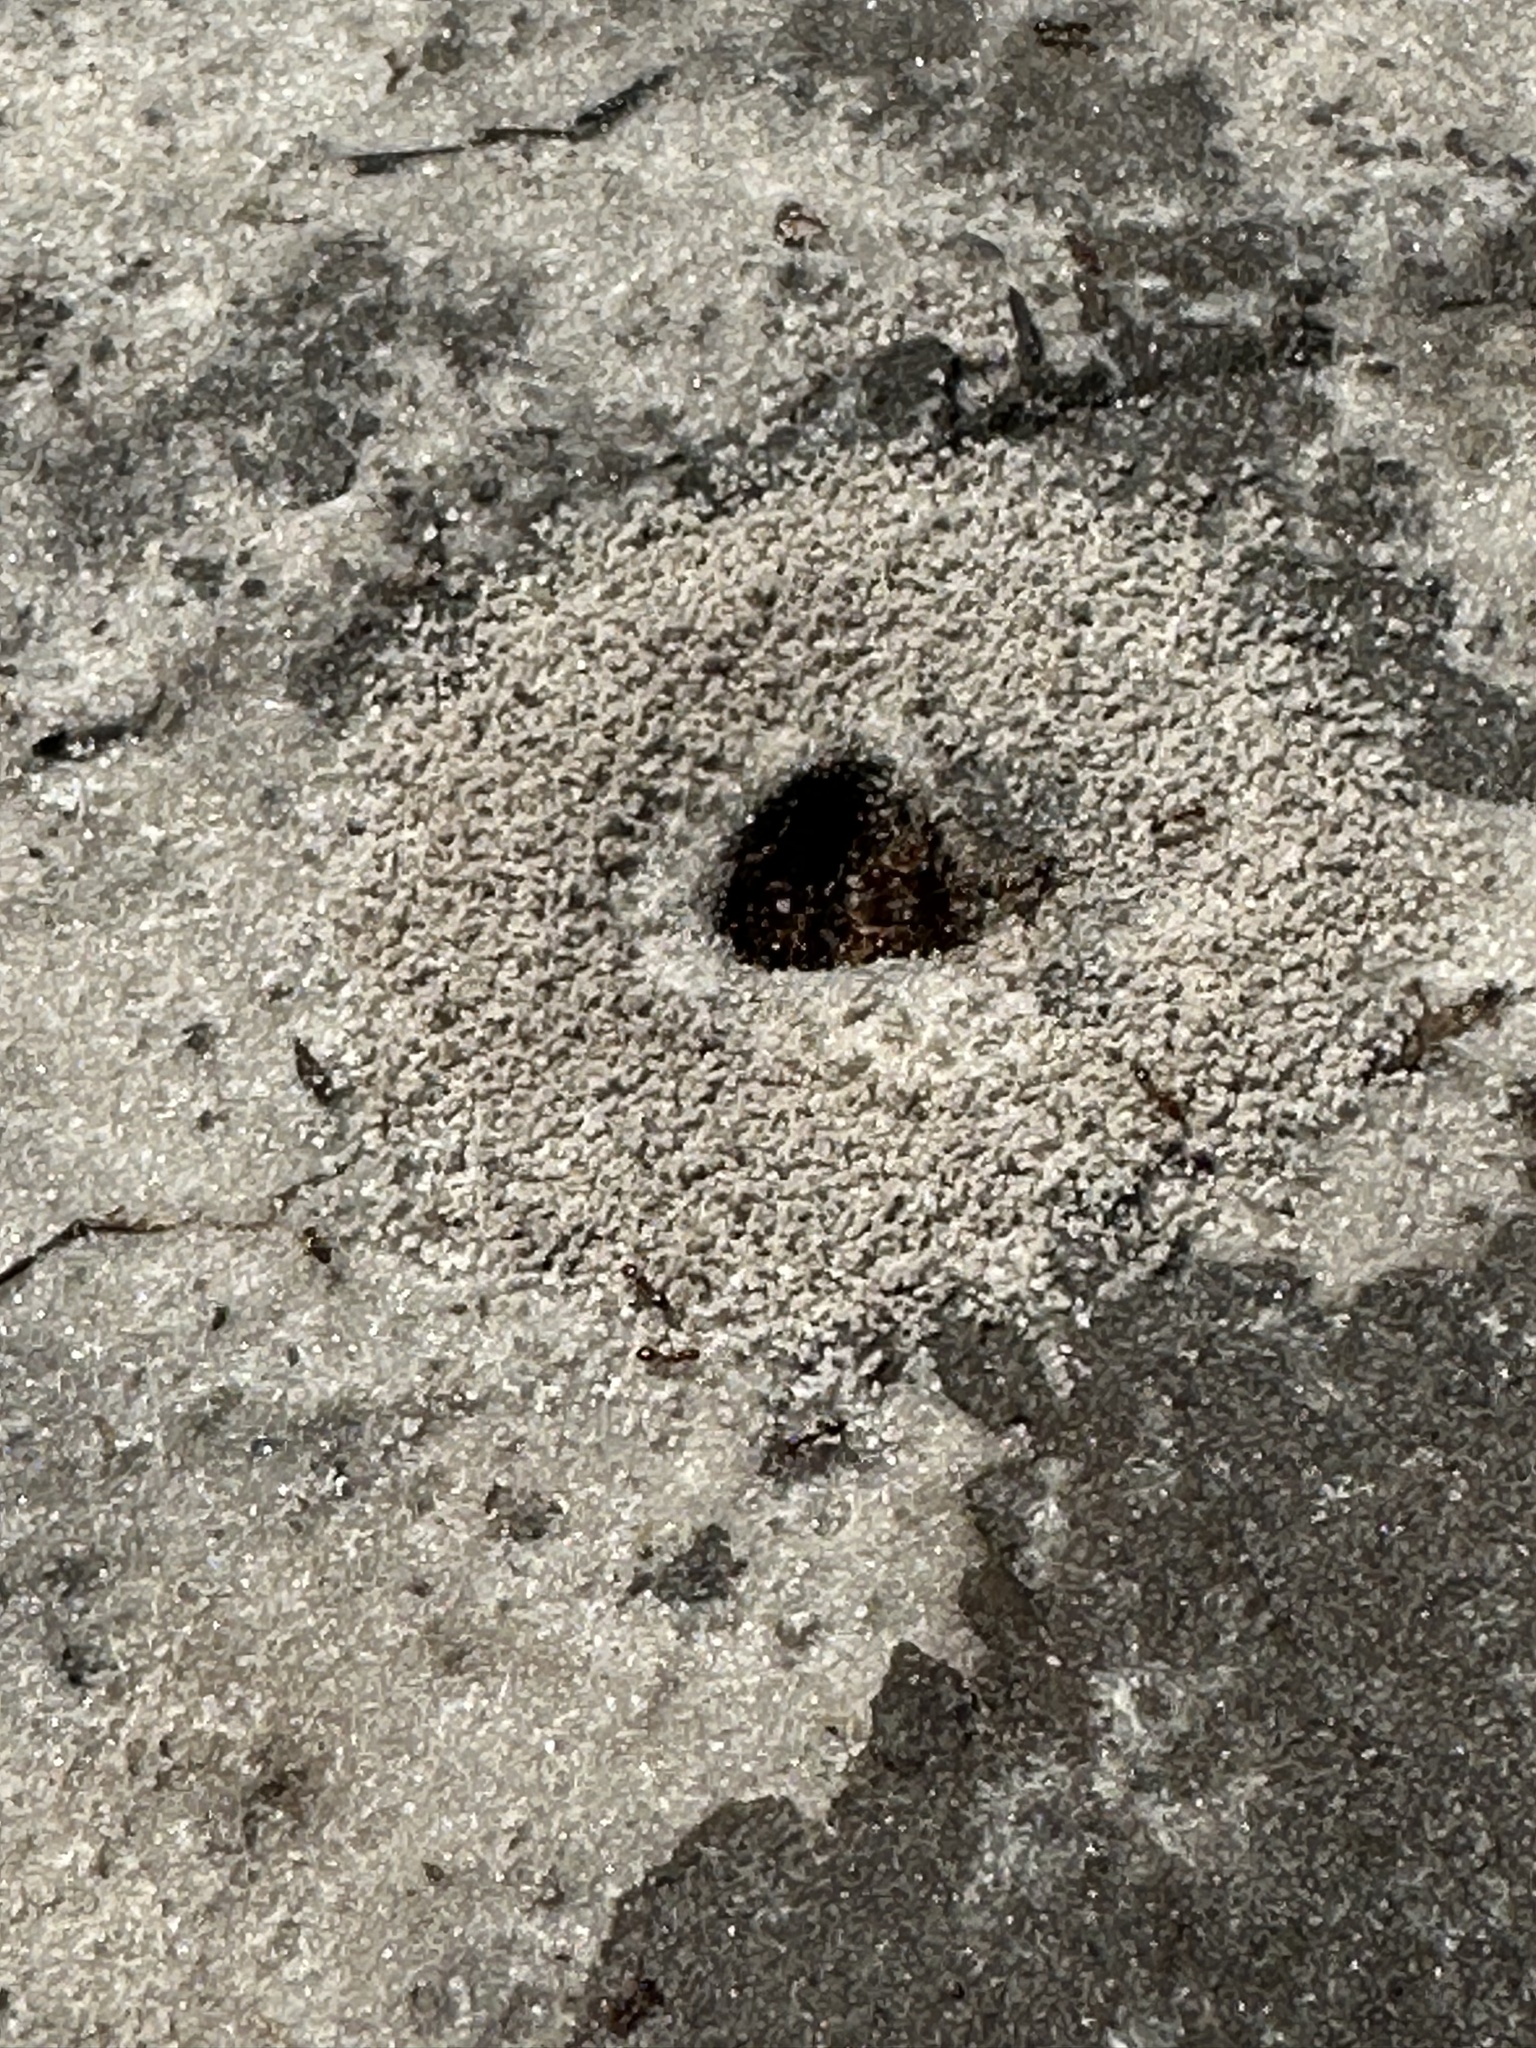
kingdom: Animalia
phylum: Arthropoda
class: Insecta
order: Hymenoptera
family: Formicidae
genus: Solenopsis
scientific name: Solenopsis invicta
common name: Red imported fire ant
